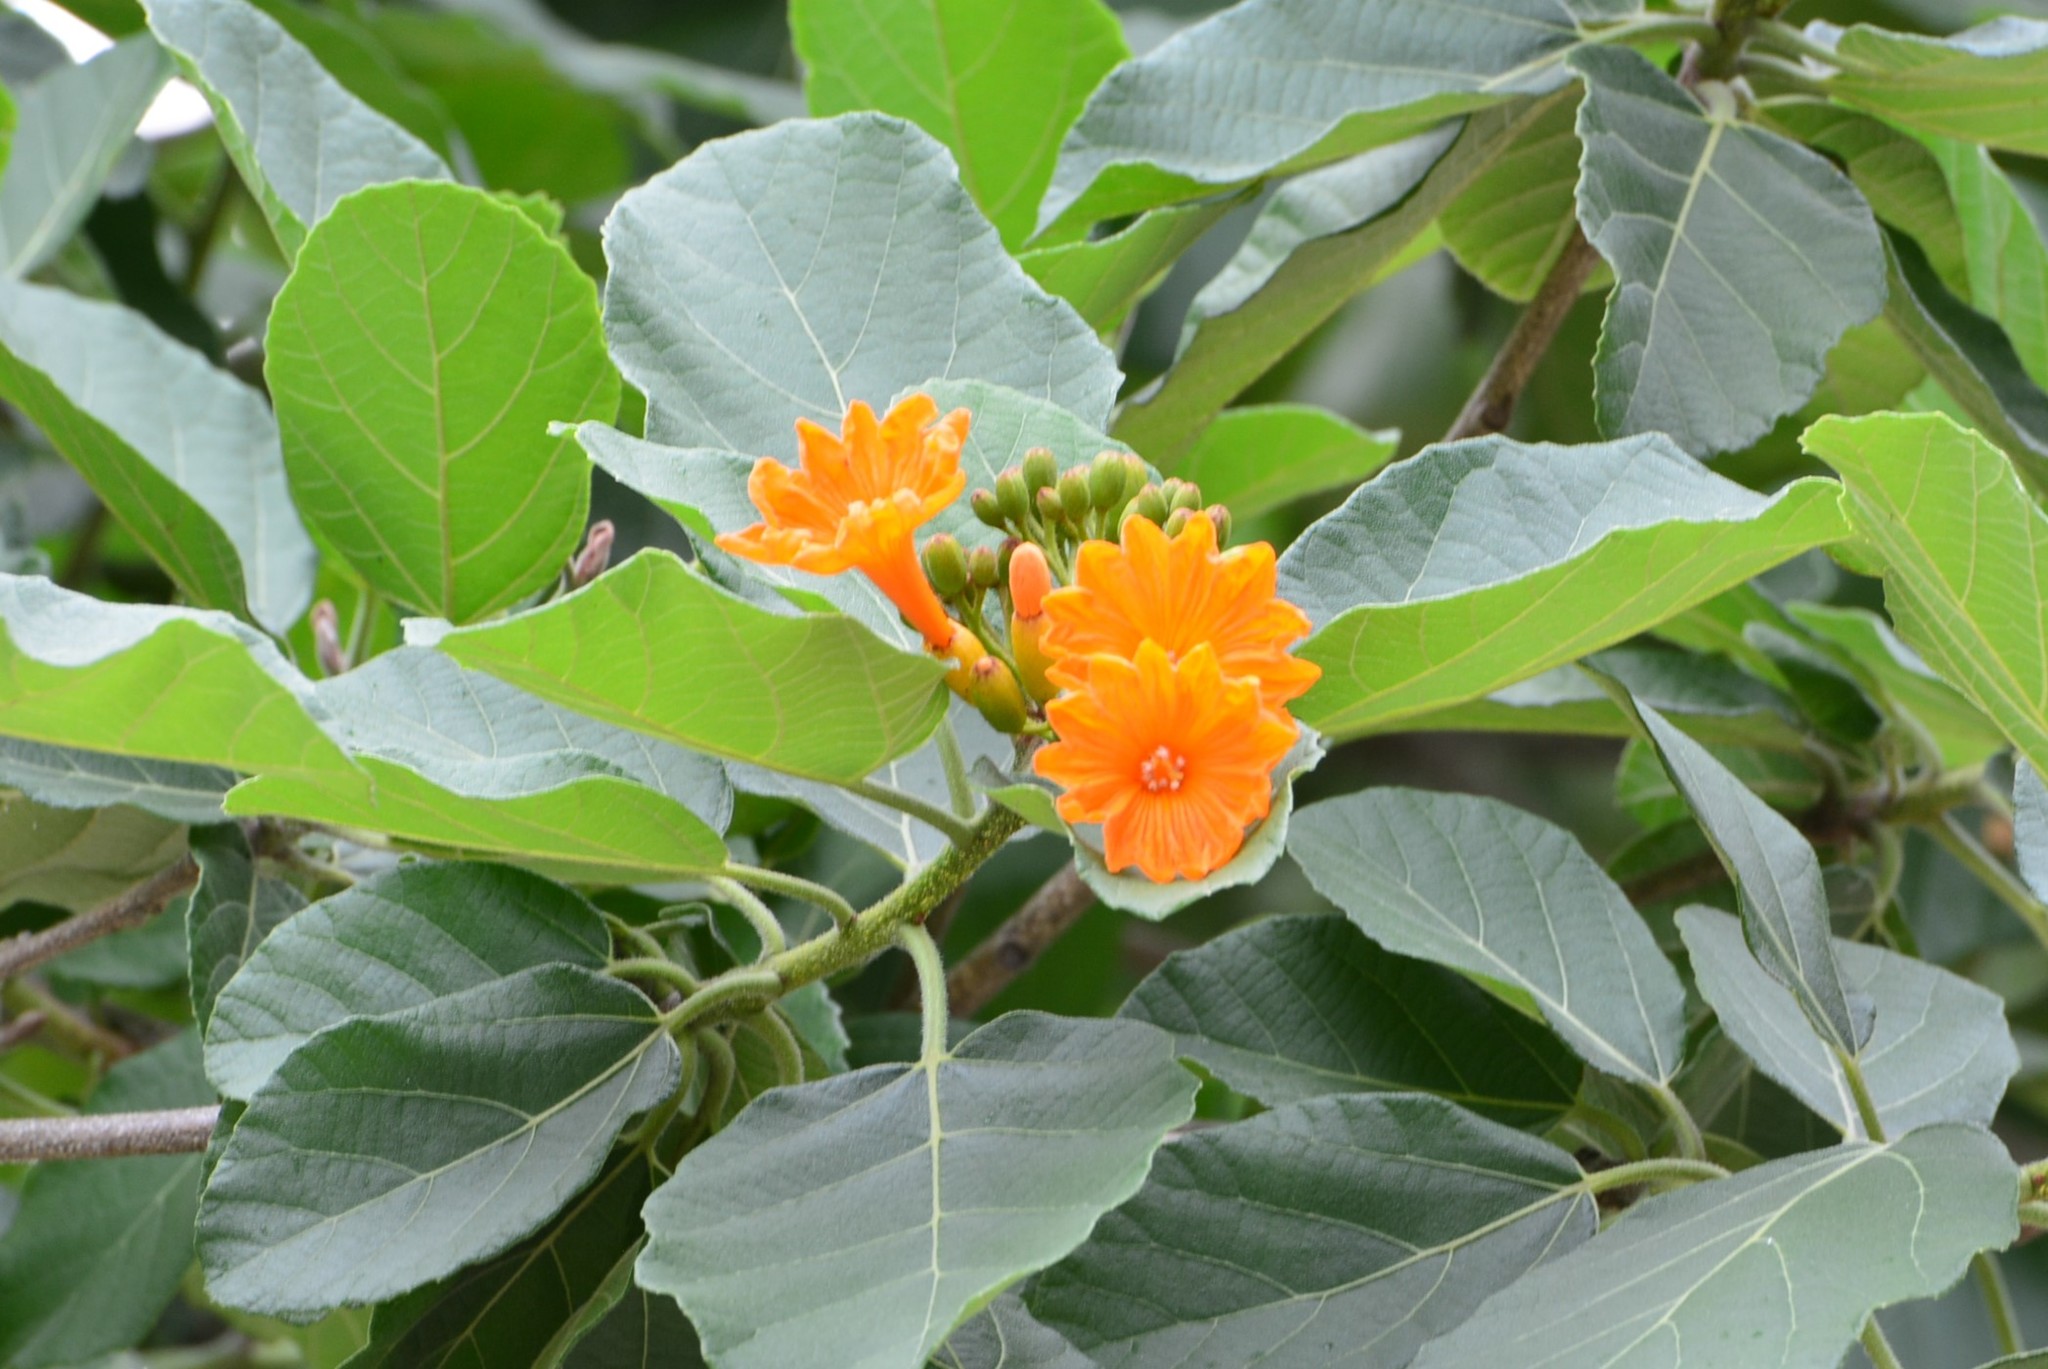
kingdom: Plantae
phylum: Tracheophyta
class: Magnoliopsida
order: Boraginales
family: Cordiaceae
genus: Cordia
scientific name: Cordia dodecandra
